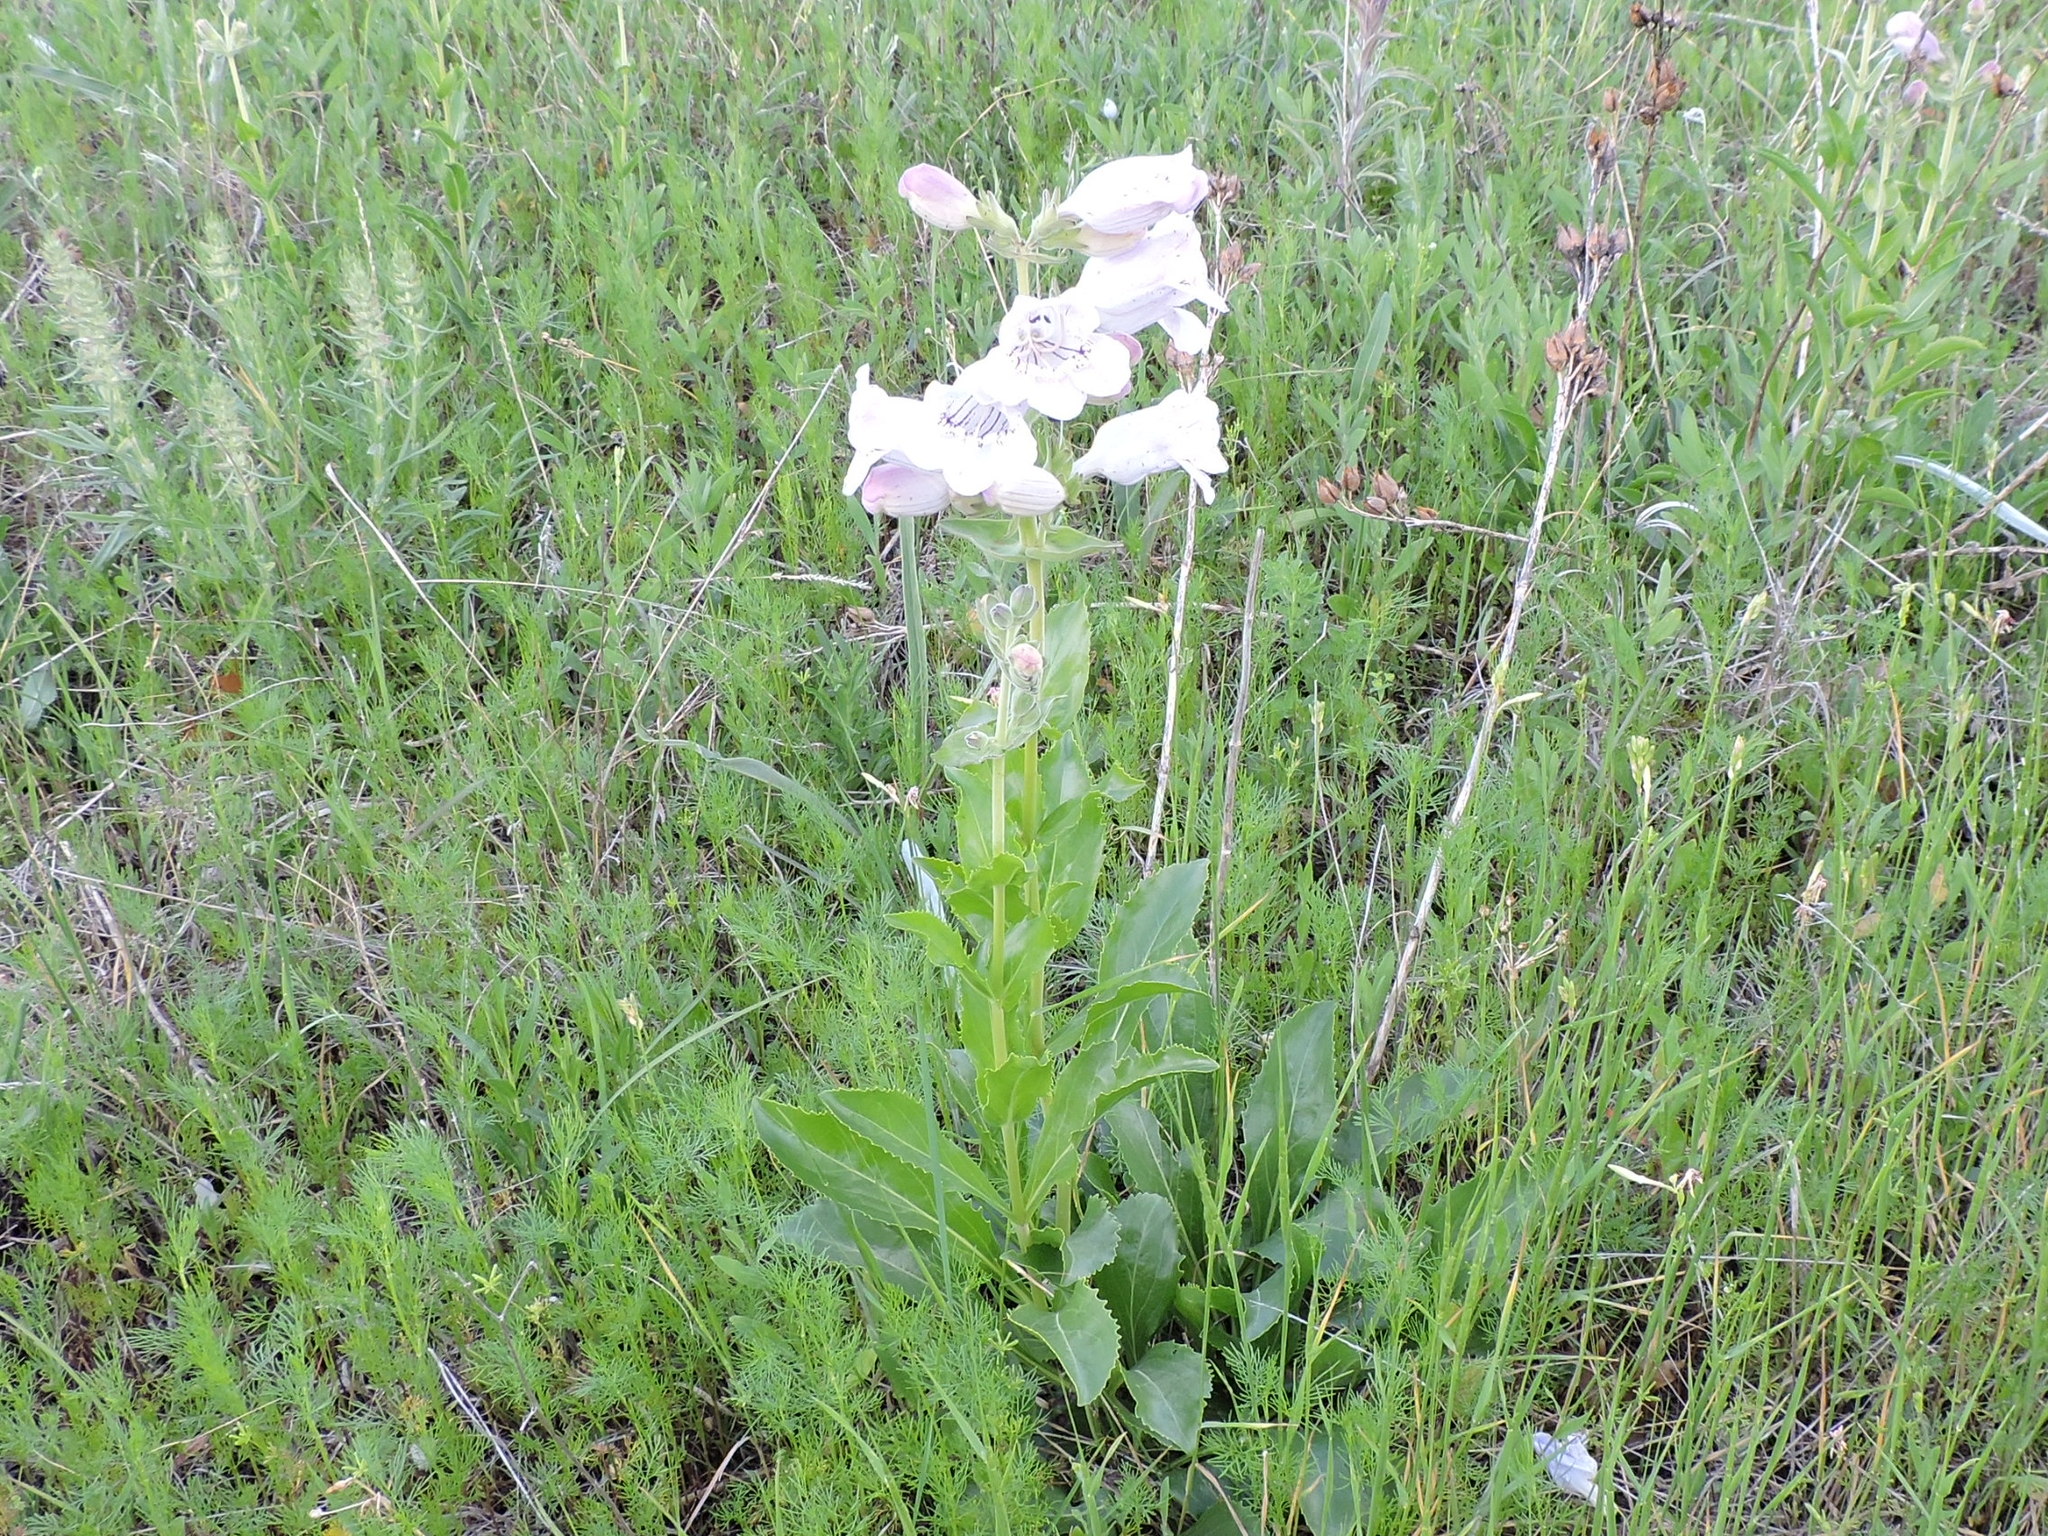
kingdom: Plantae
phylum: Tracheophyta
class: Magnoliopsida
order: Lamiales
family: Plantaginaceae
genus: Penstemon
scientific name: Penstemon cobaea
